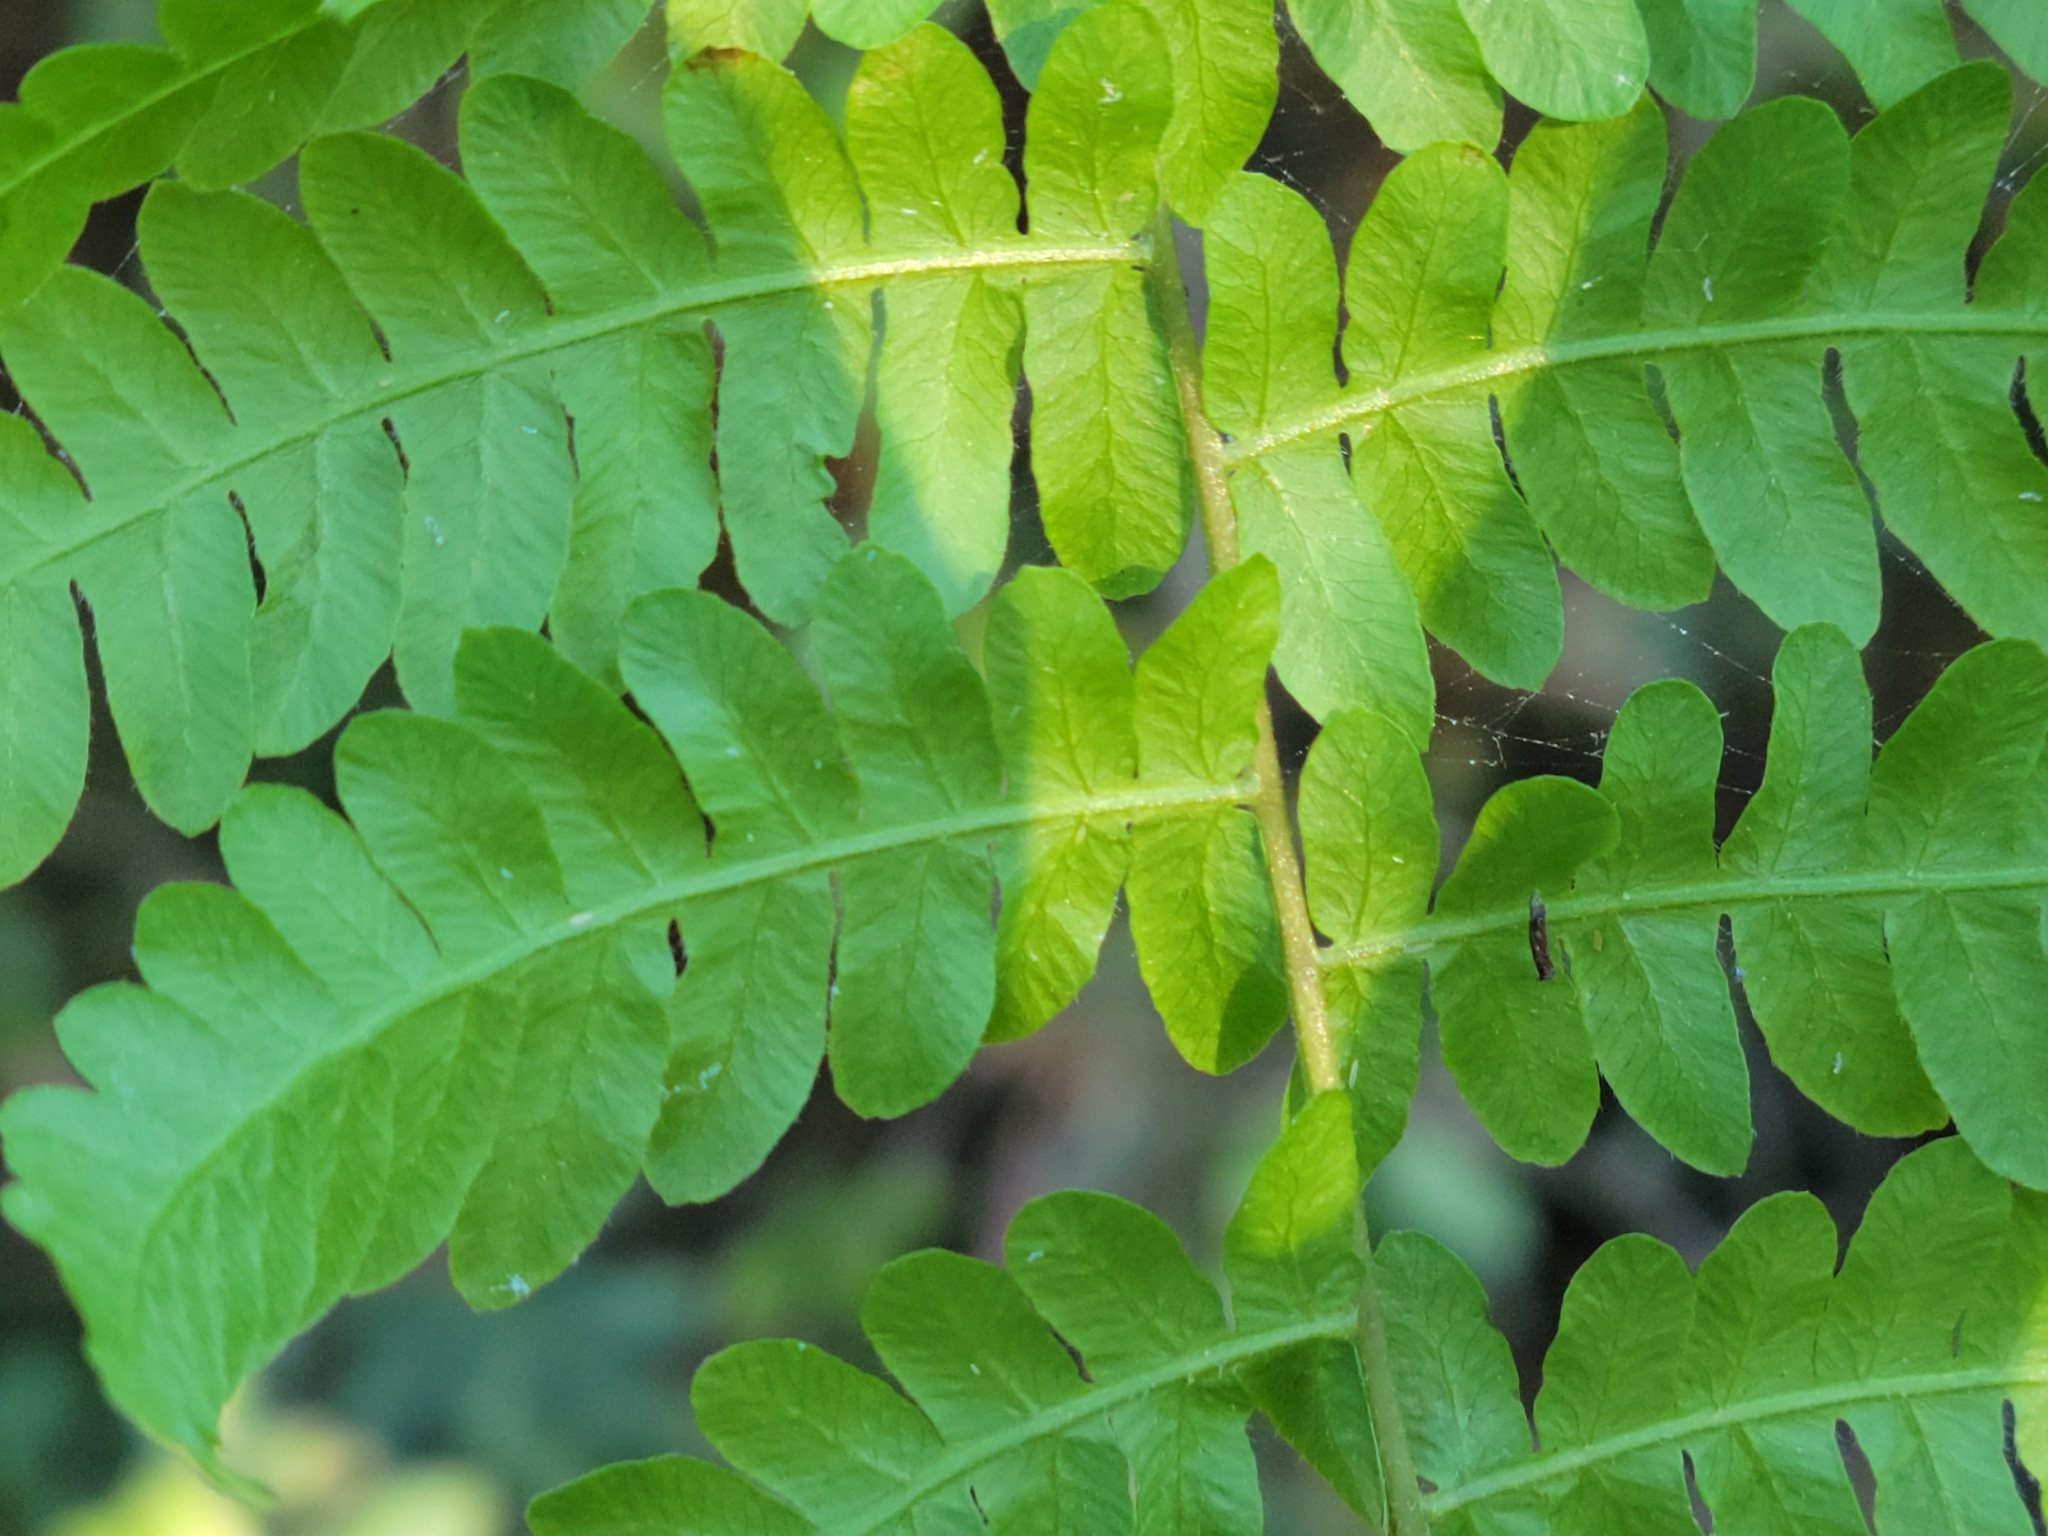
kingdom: Plantae
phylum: Tracheophyta
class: Polypodiopsida
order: Polypodiales
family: Thelypteridaceae
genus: Thelypteris
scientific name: Thelypteris palustris
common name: Marsh fern
